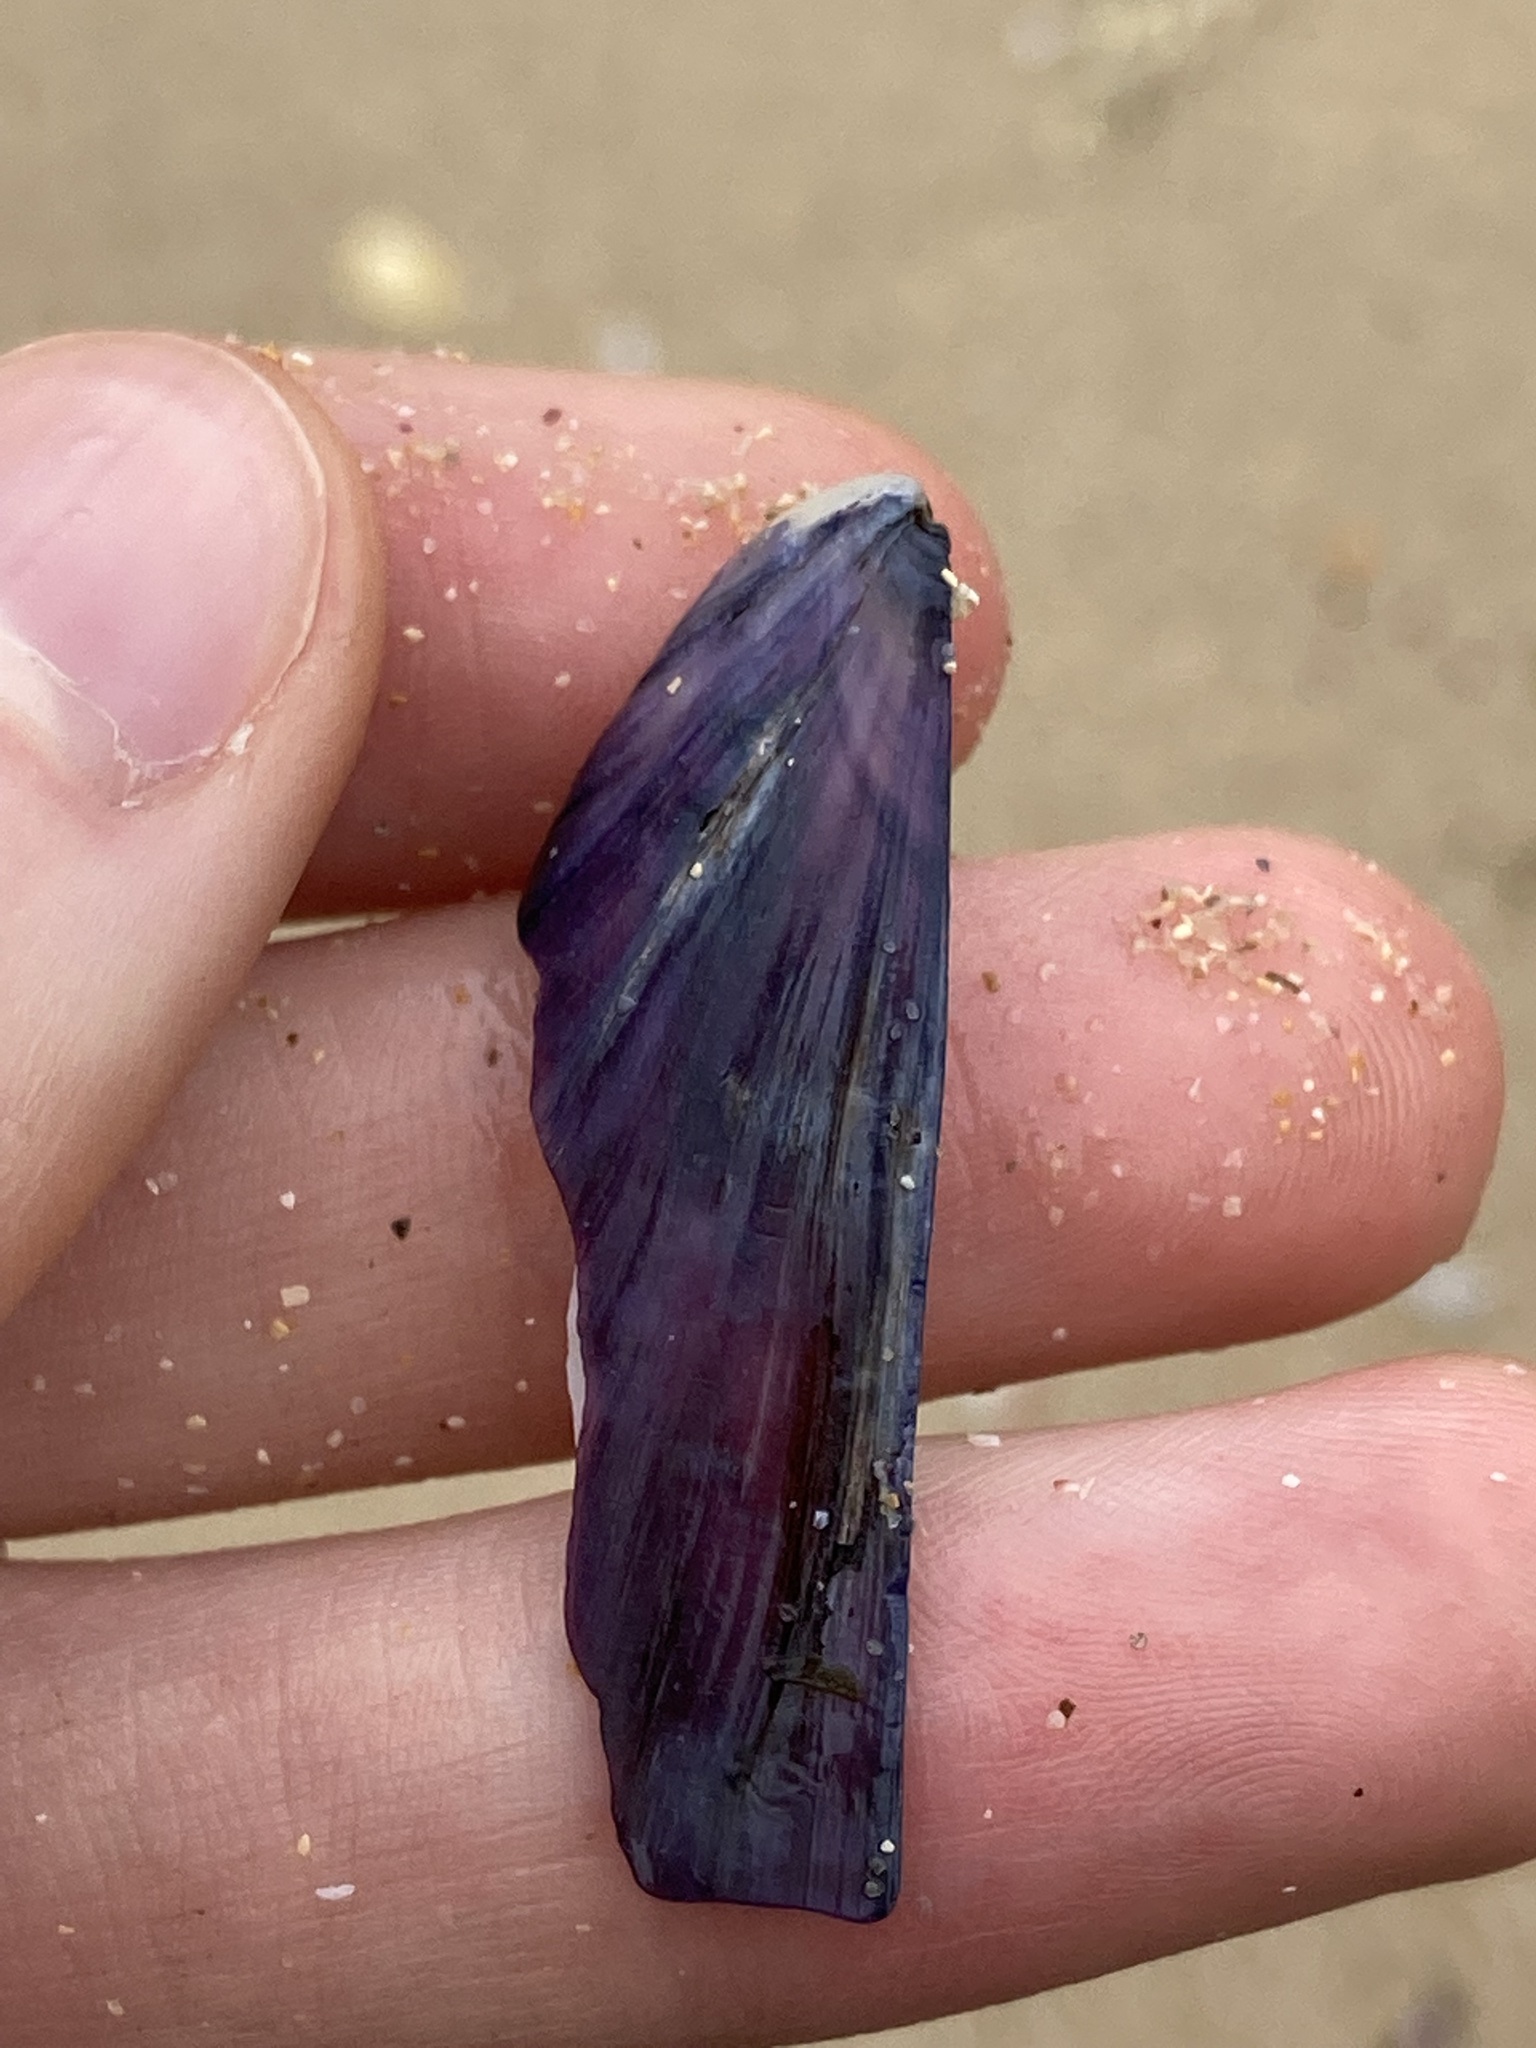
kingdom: Animalia
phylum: Mollusca
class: Bivalvia
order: Mytilida
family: Mytilidae
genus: Mytilus
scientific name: Mytilus
